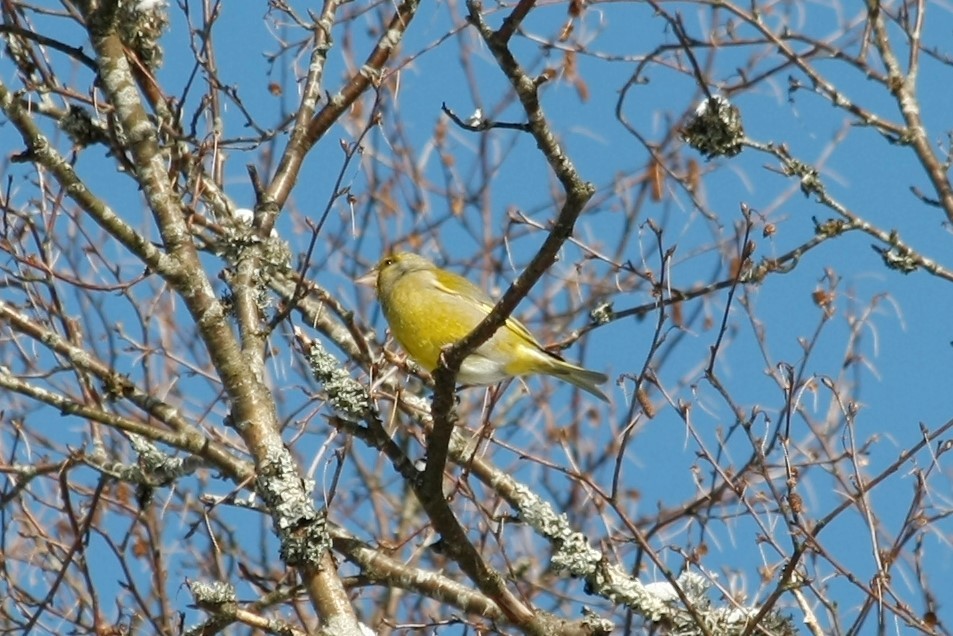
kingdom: Plantae
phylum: Tracheophyta
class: Liliopsida
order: Poales
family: Poaceae
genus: Chloris
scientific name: Chloris chloris
